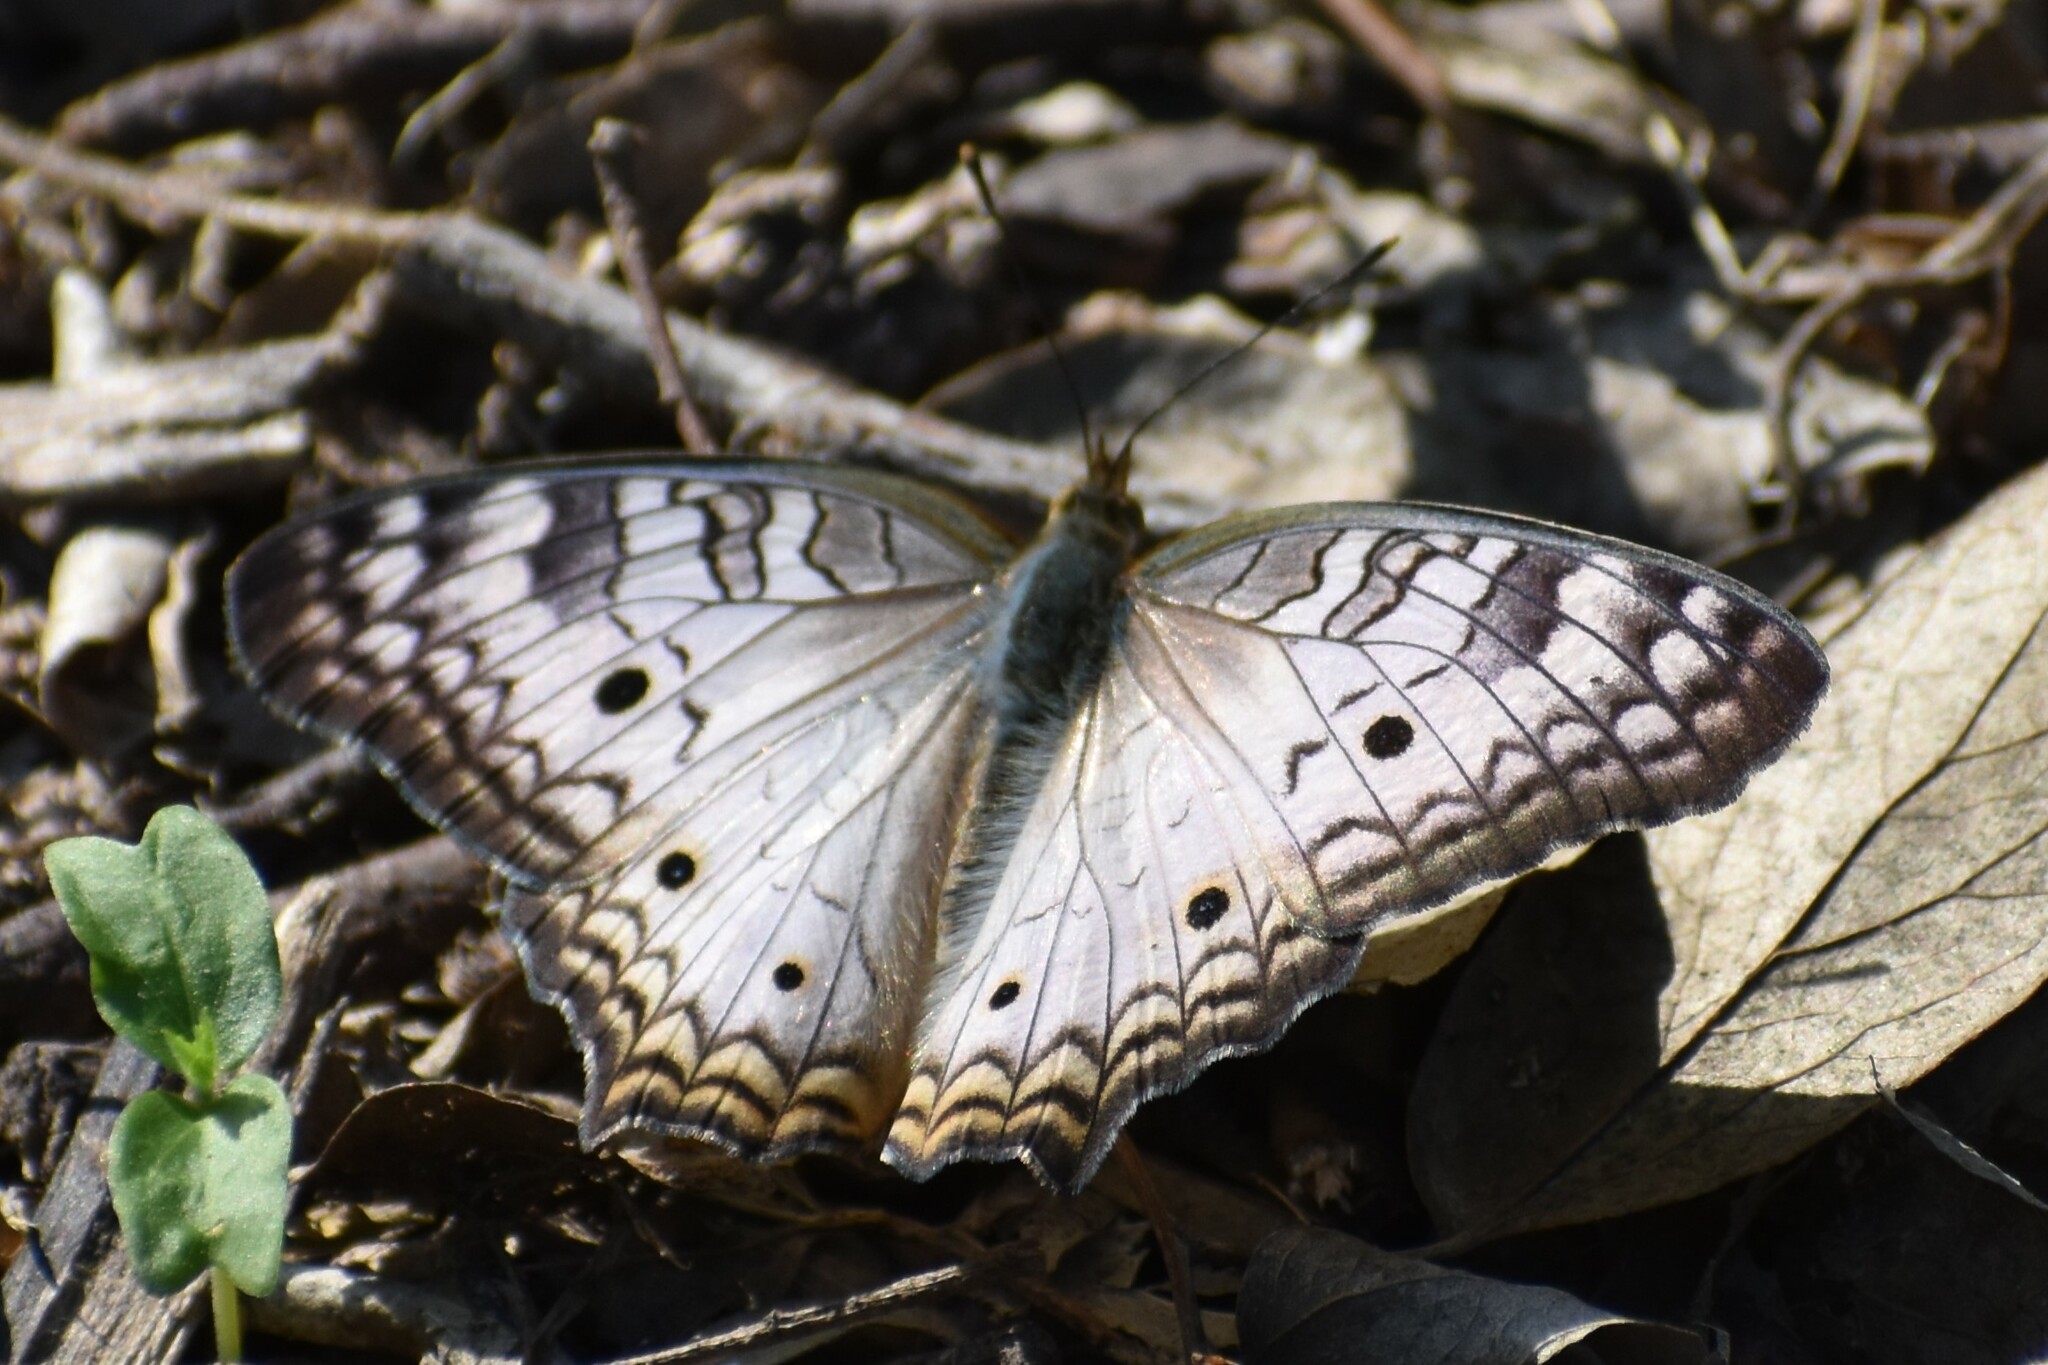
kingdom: Animalia
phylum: Arthropoda
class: Insecta
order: Lepidoptera
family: Nymphalidae
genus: Anartia
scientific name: Anartia jatrophae
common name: White peacock
